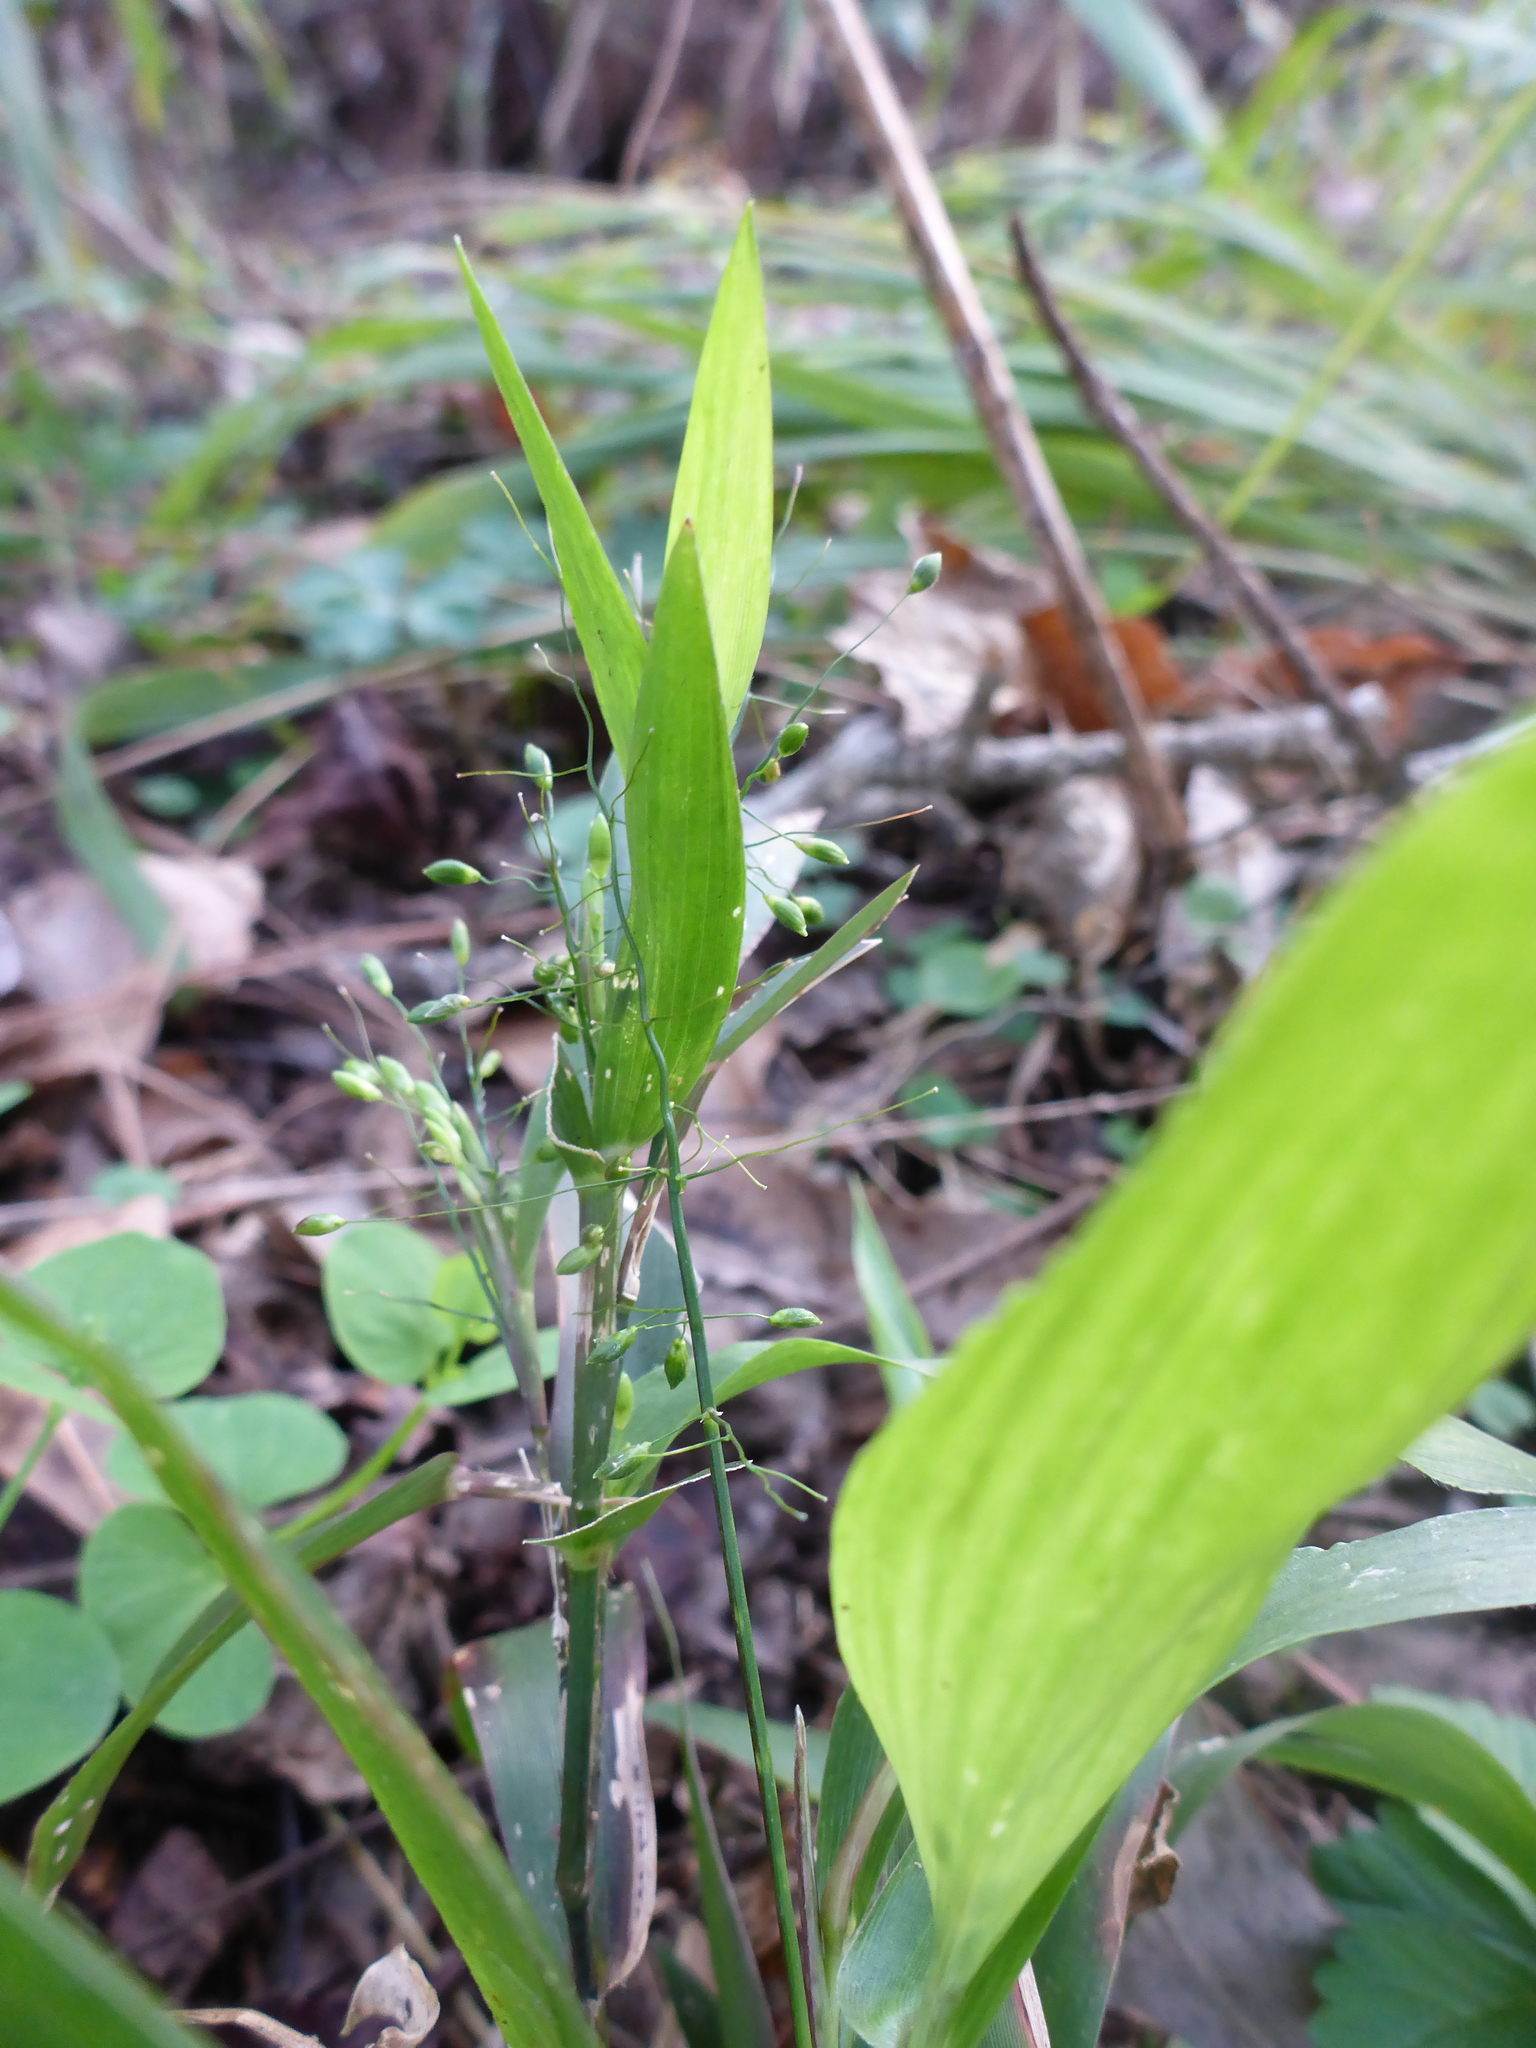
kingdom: Plantae
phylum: Tracheophyta
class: Liliopsida
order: Poales
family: Poaceae
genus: Dichanthelium
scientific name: Dichanthelium commutatum
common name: Variable witchgrass
